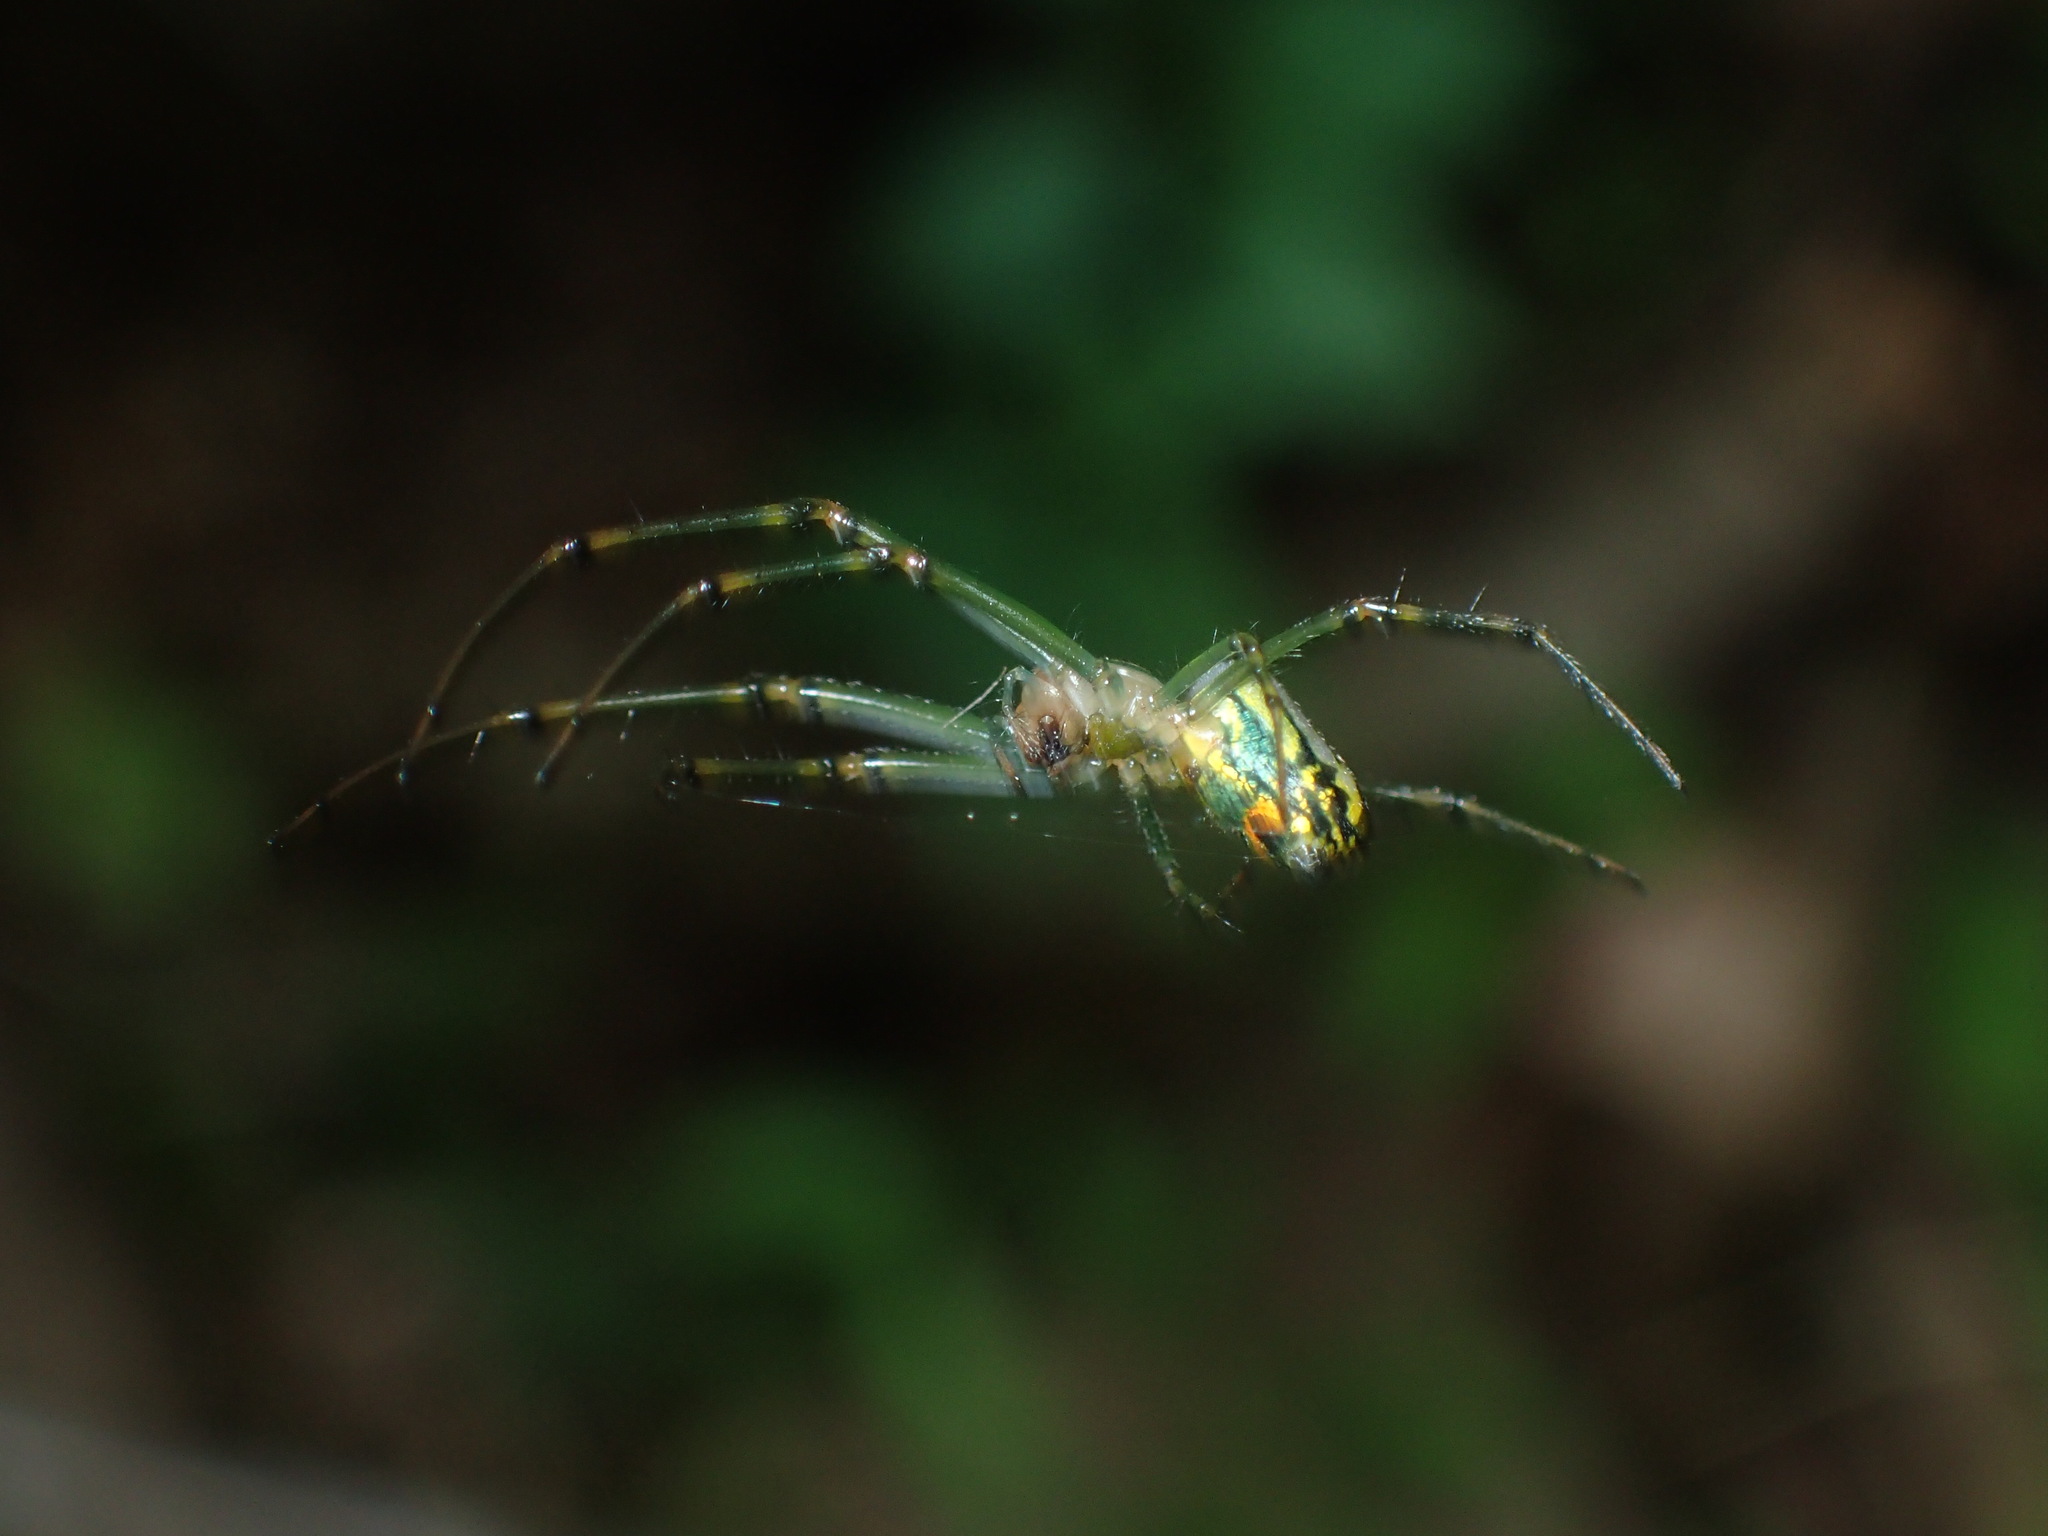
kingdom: Animalia
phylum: Arthropoda
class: Arachnida
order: Araneae
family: Tetragnathidae
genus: Leucauge
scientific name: Leucauge venusta
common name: Longjawed orb weavers
